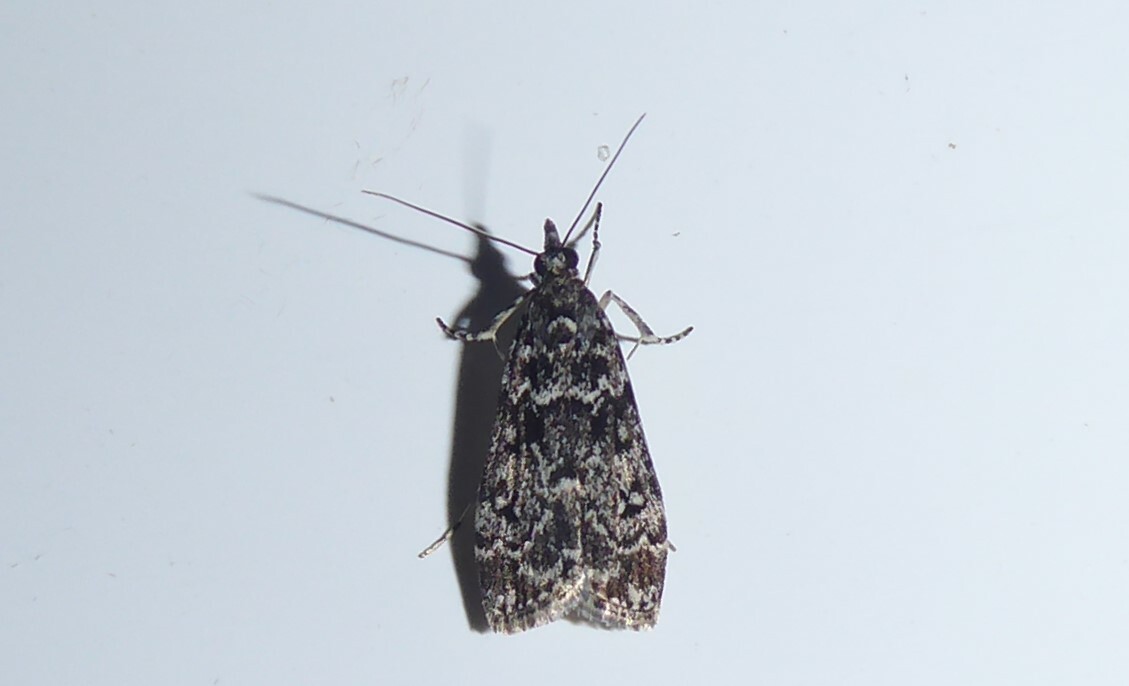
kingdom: Animalia
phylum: Arthropoda
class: Insecta
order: Lepidoptera
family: Crambidae
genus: Eudonia
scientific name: Eudonia philerga
